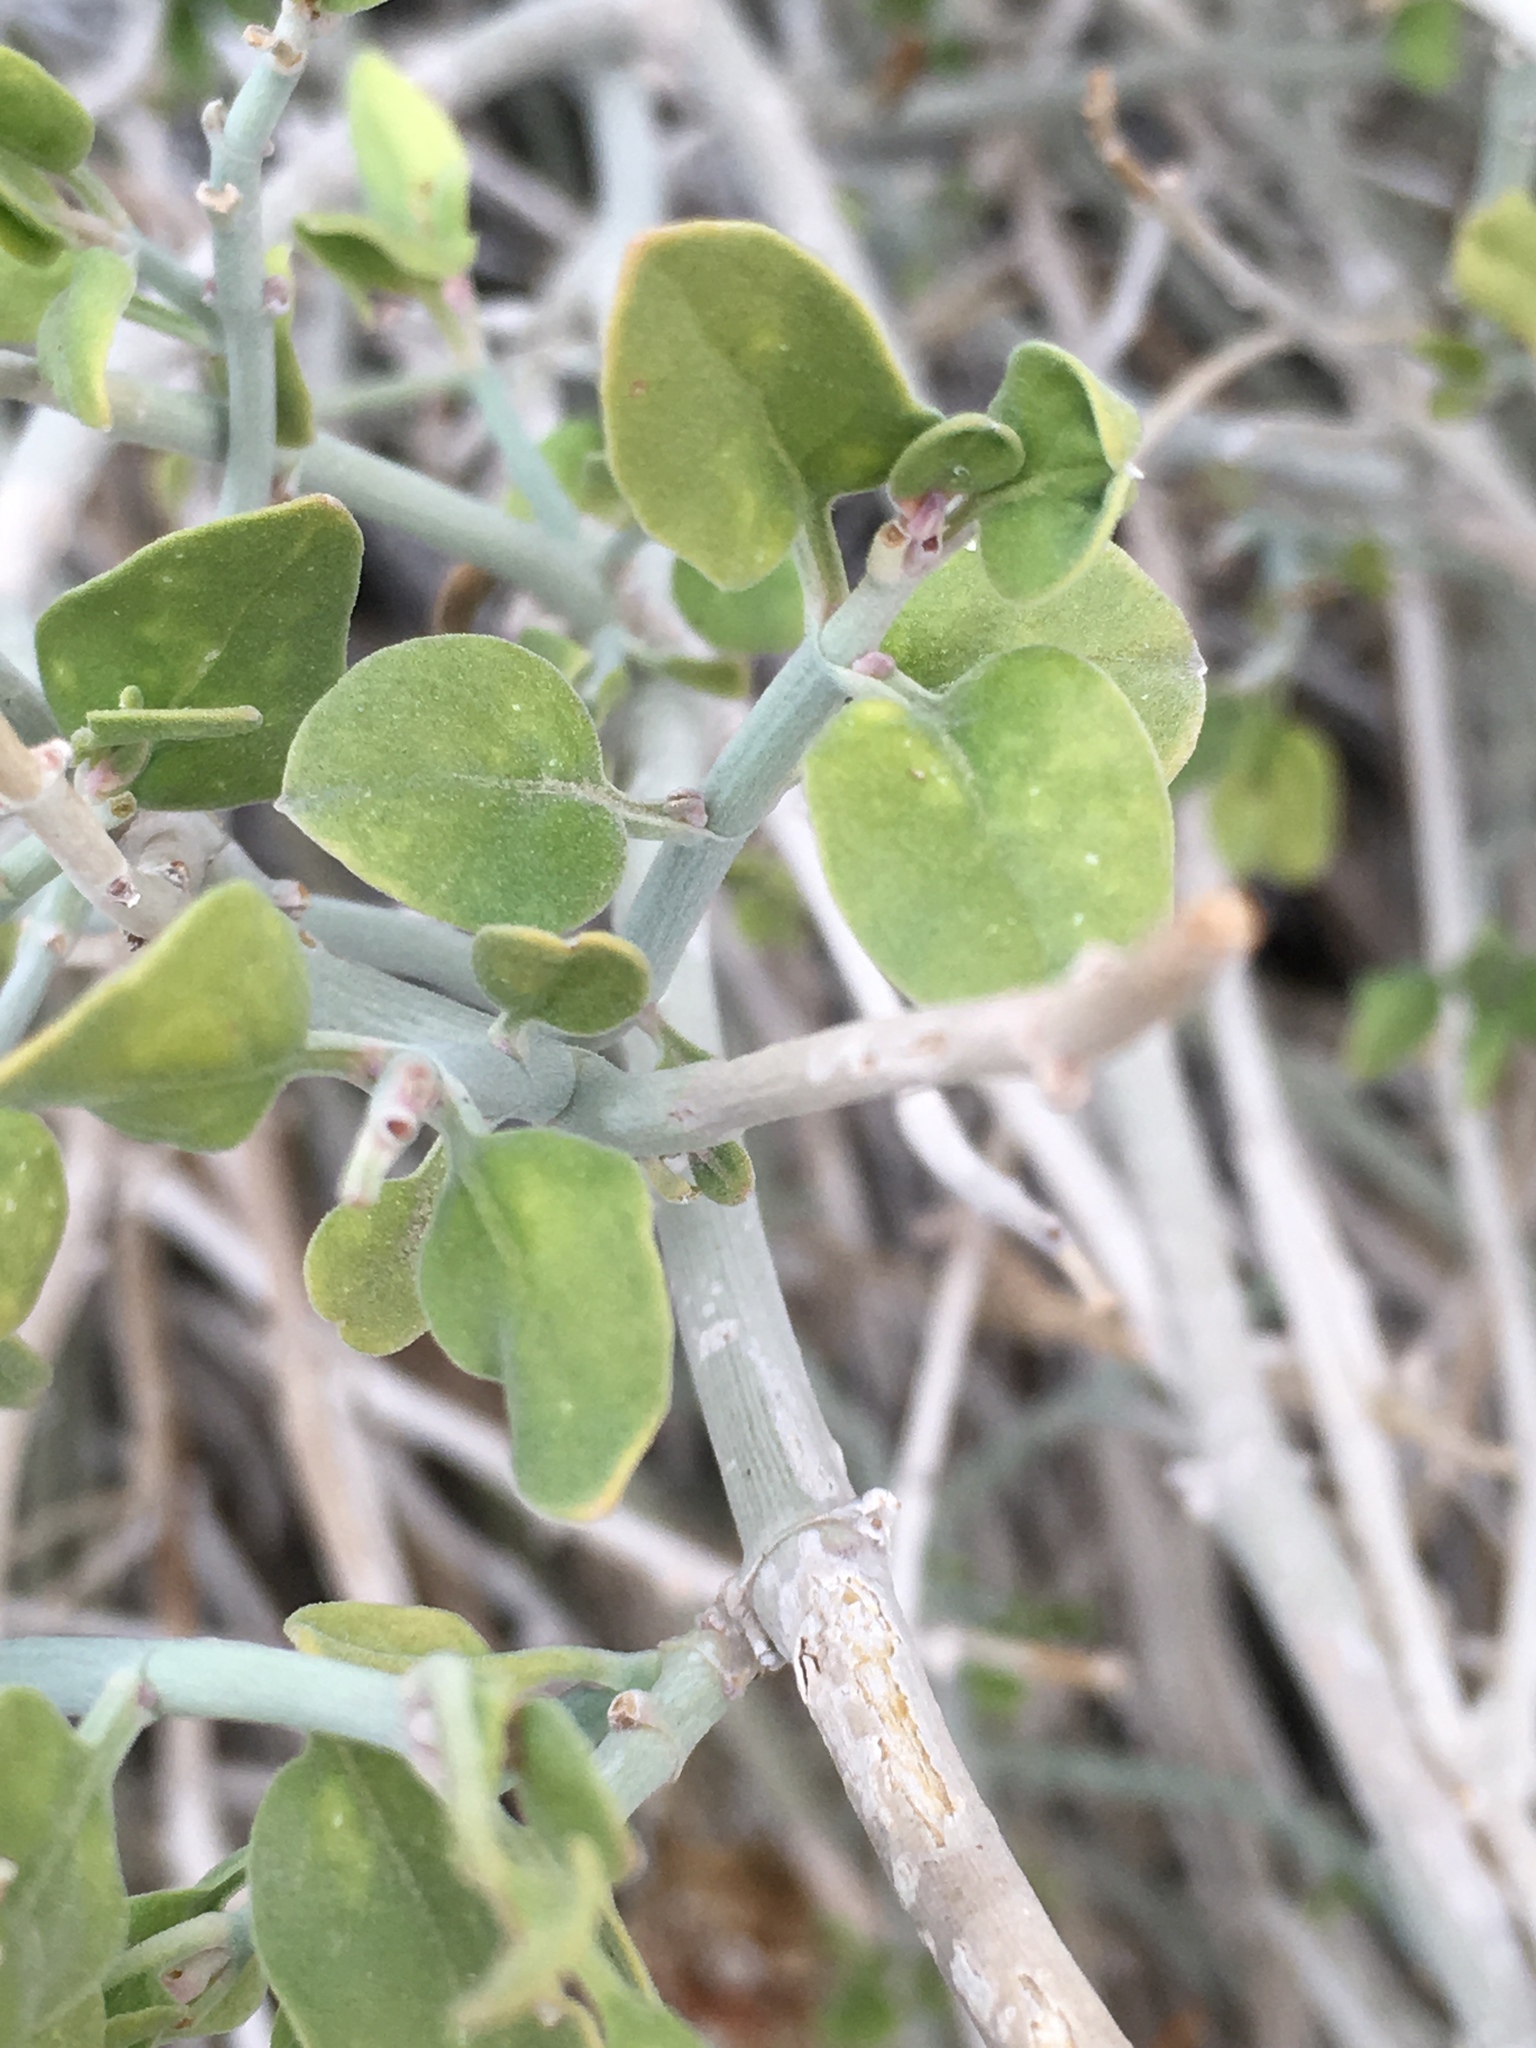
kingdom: Plantae
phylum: Tracheophyta
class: Magnoliopsida
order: Lamiales
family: Acanthaceae
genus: Justicia
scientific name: Justicia californica
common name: Chuparosa-honeysuckle
